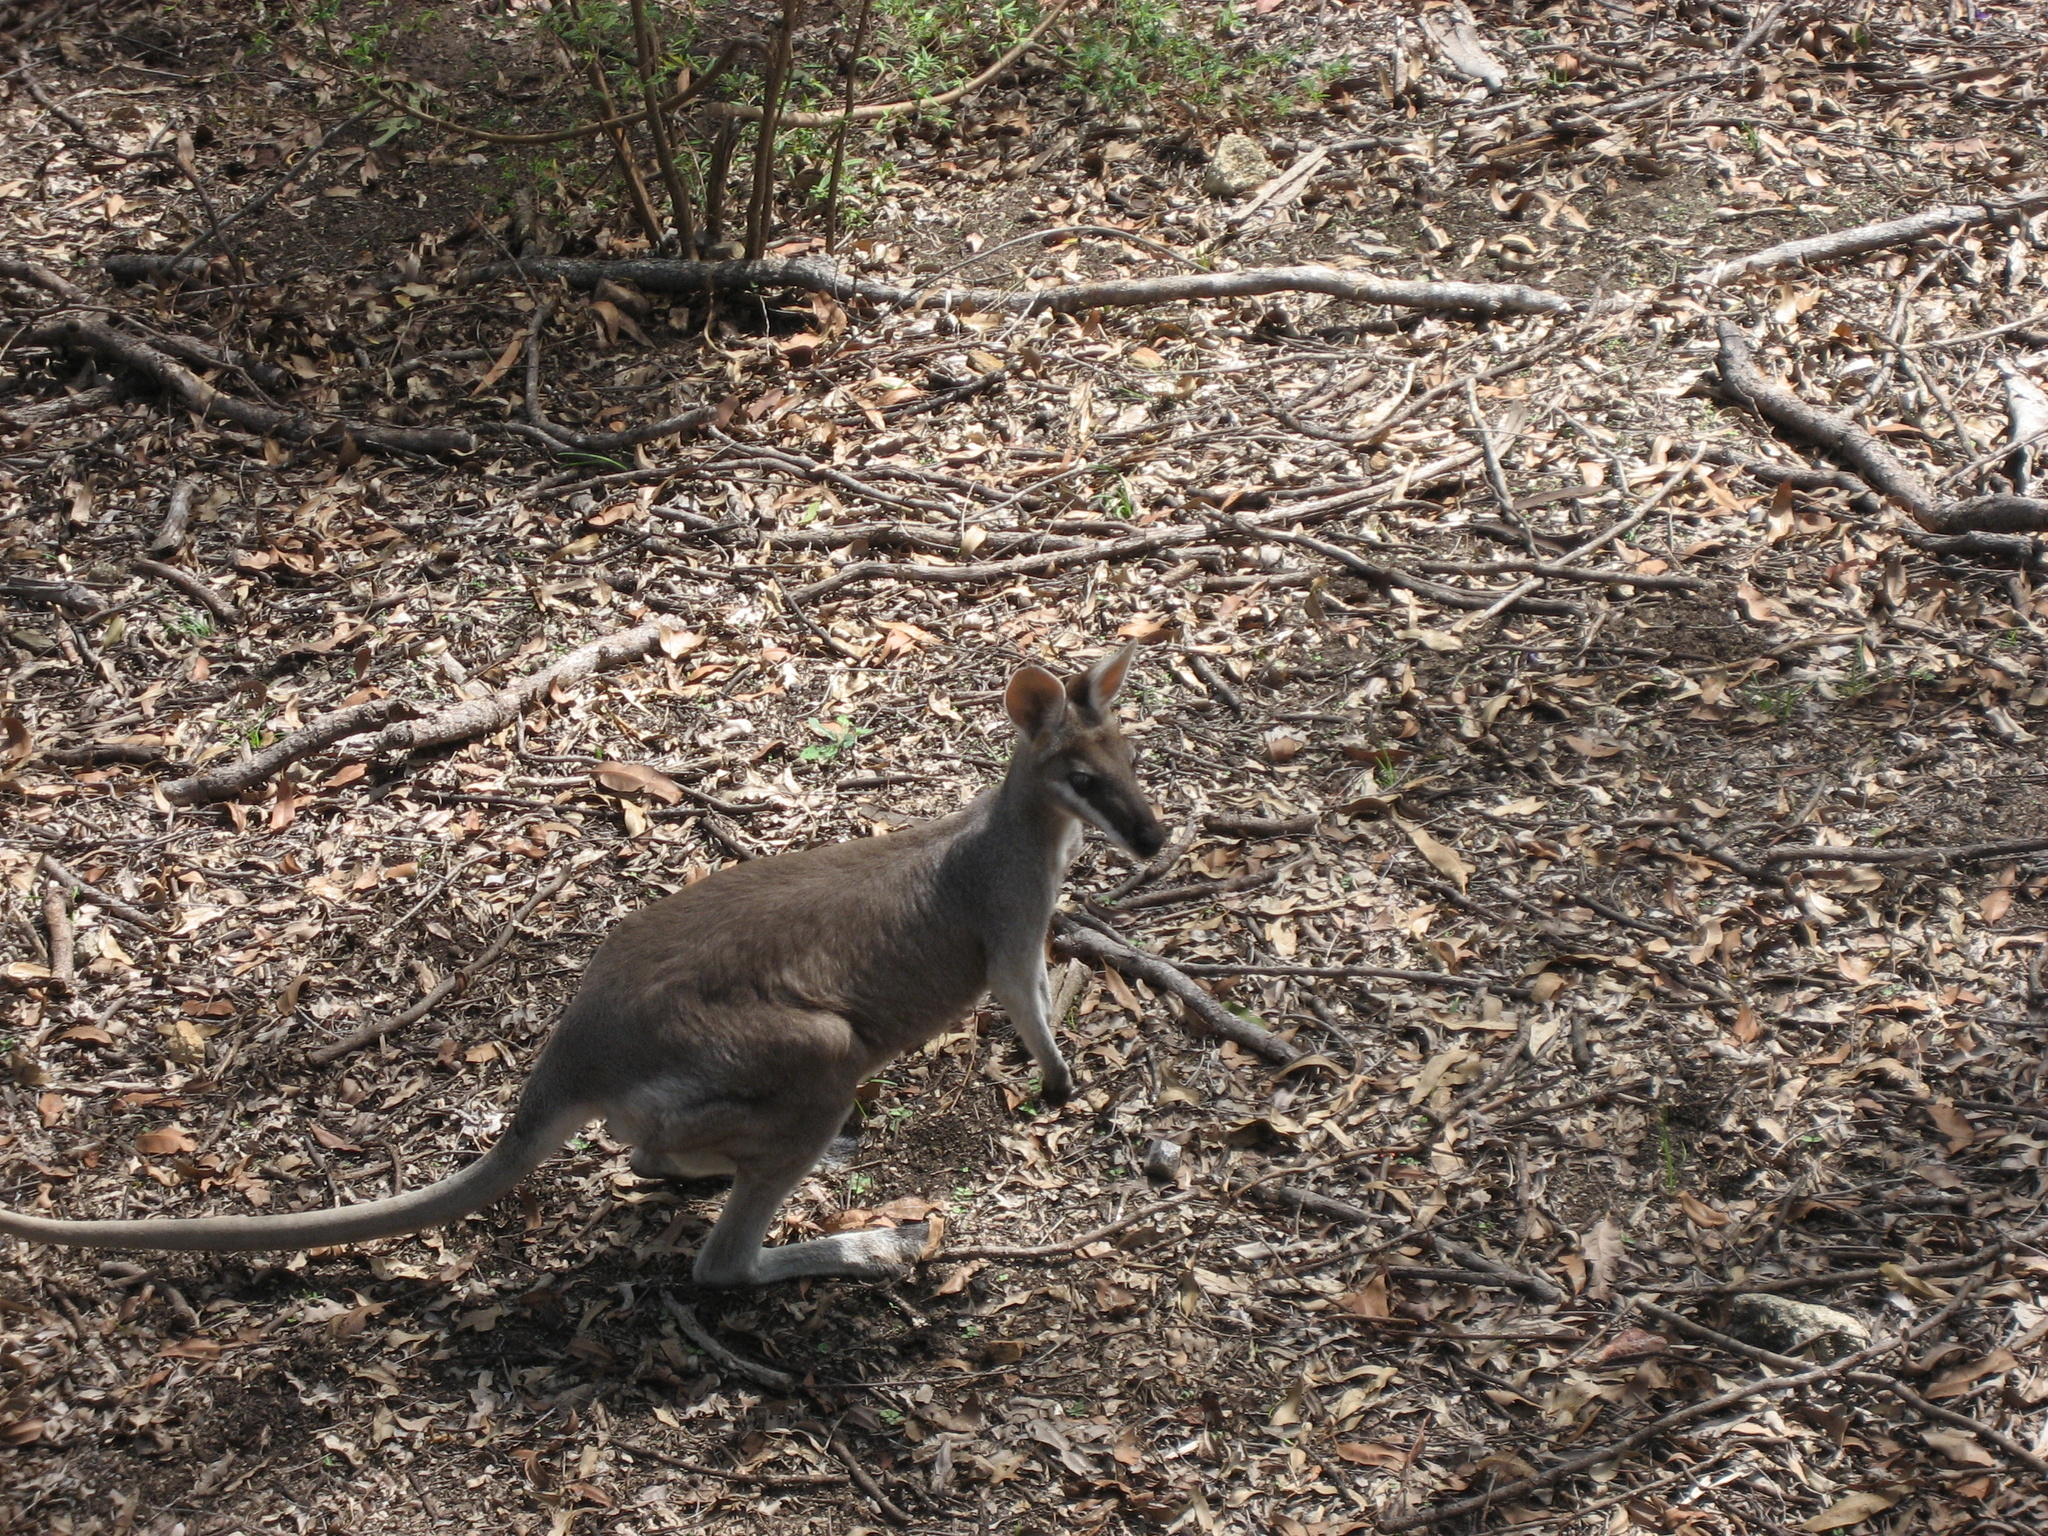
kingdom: Animalia
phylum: Chordata
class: Mammalia
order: Diprotodontia
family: Macropodidae
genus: Notamacropus
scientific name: Notamacropus parryi
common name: Whip-tailed wallaby
